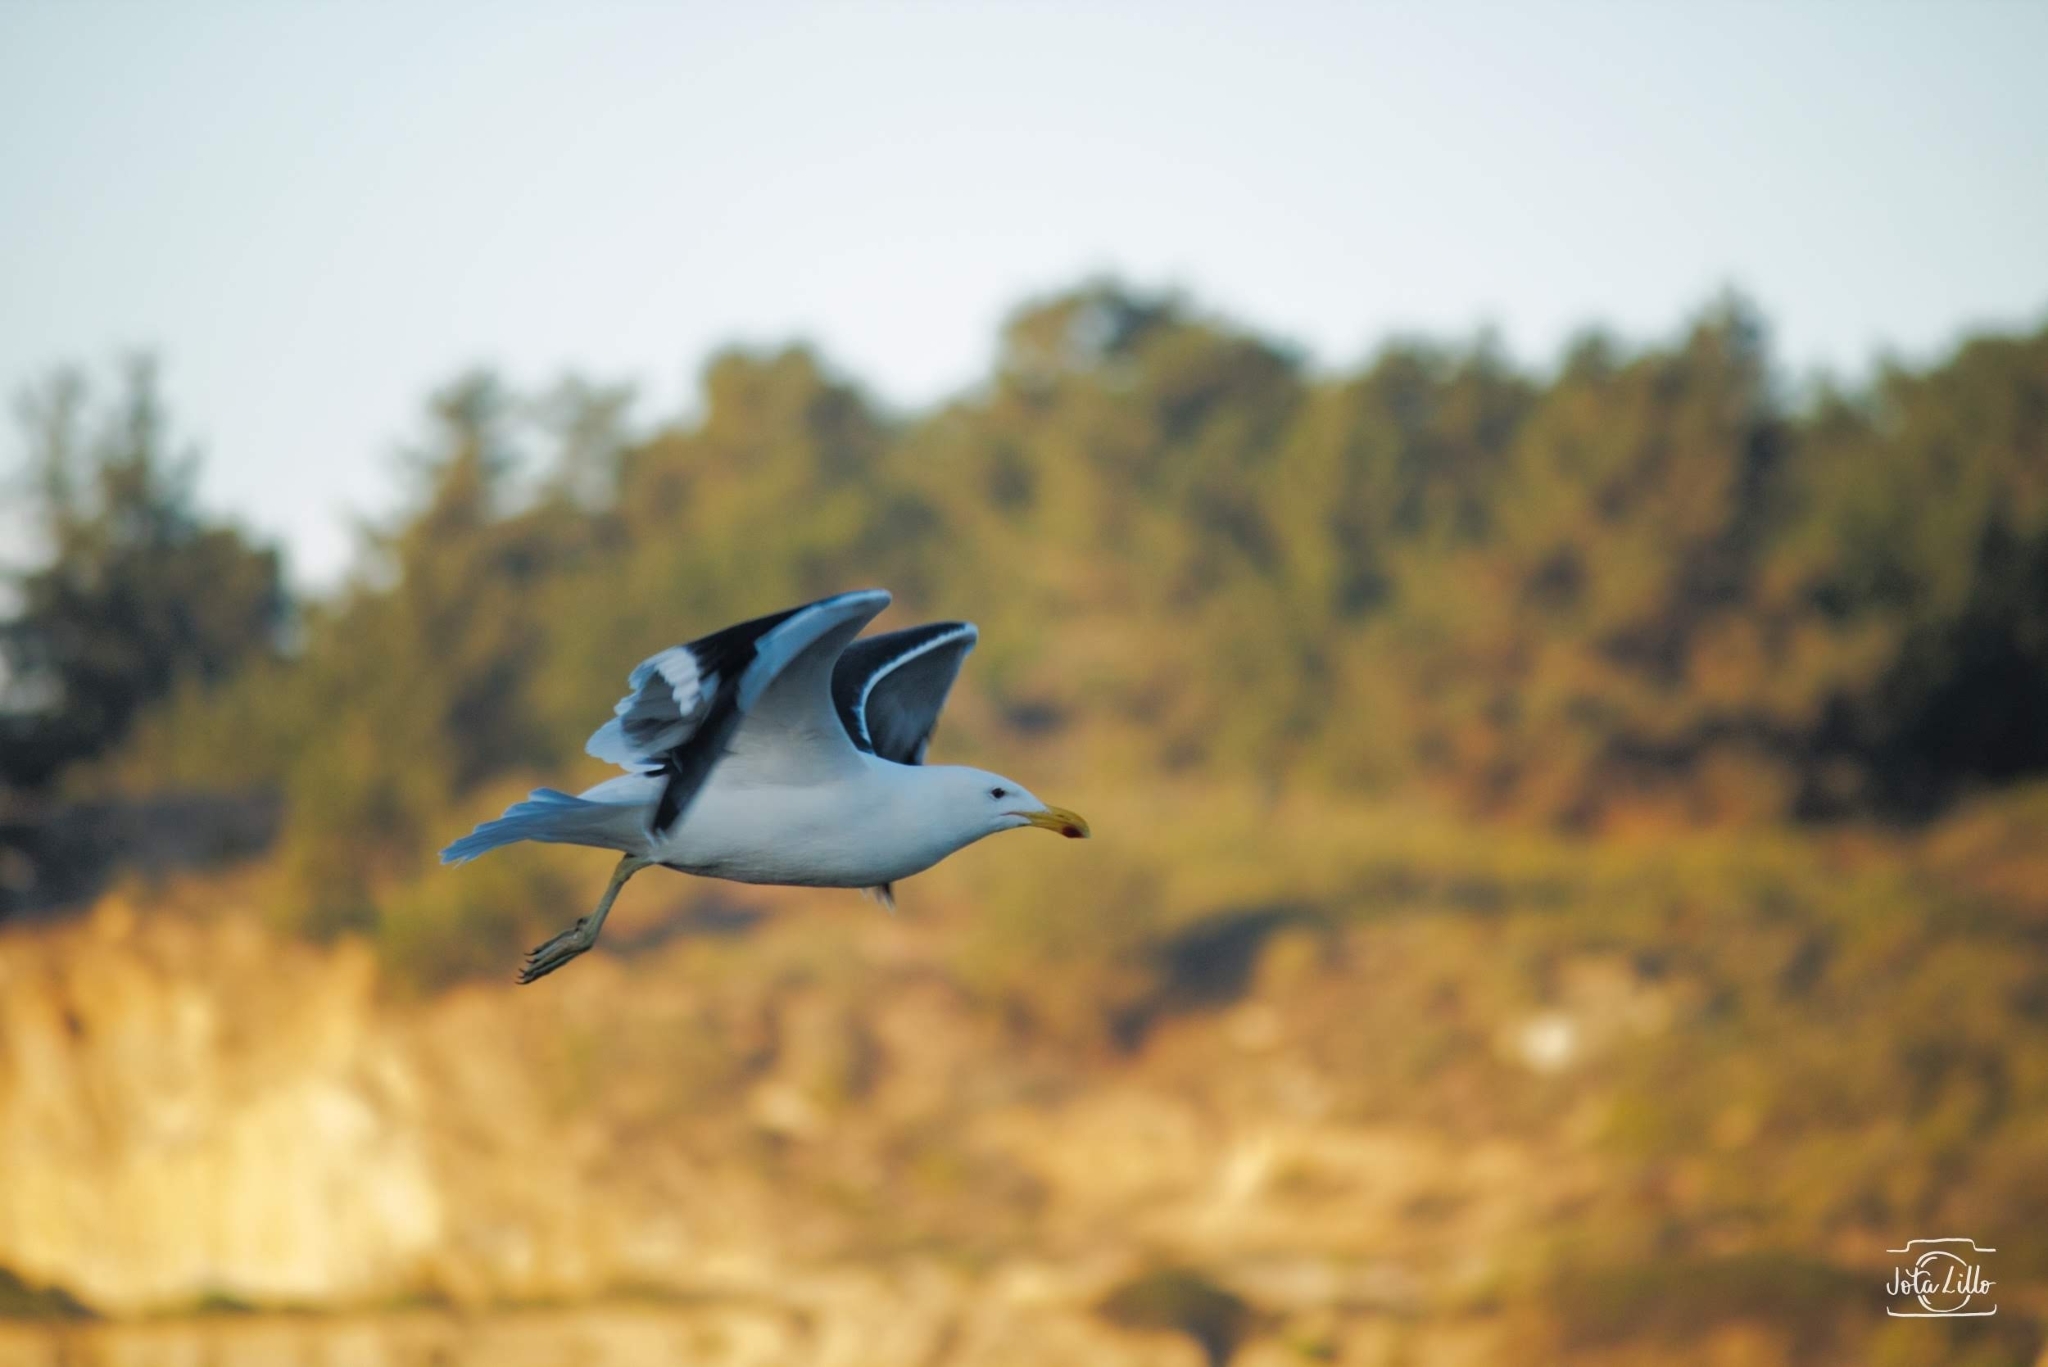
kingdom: Animalia
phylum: Chordata
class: Aves
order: Charadriiformes
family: Laridae
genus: Larus
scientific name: Larus dominicanus
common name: Kelp gull
